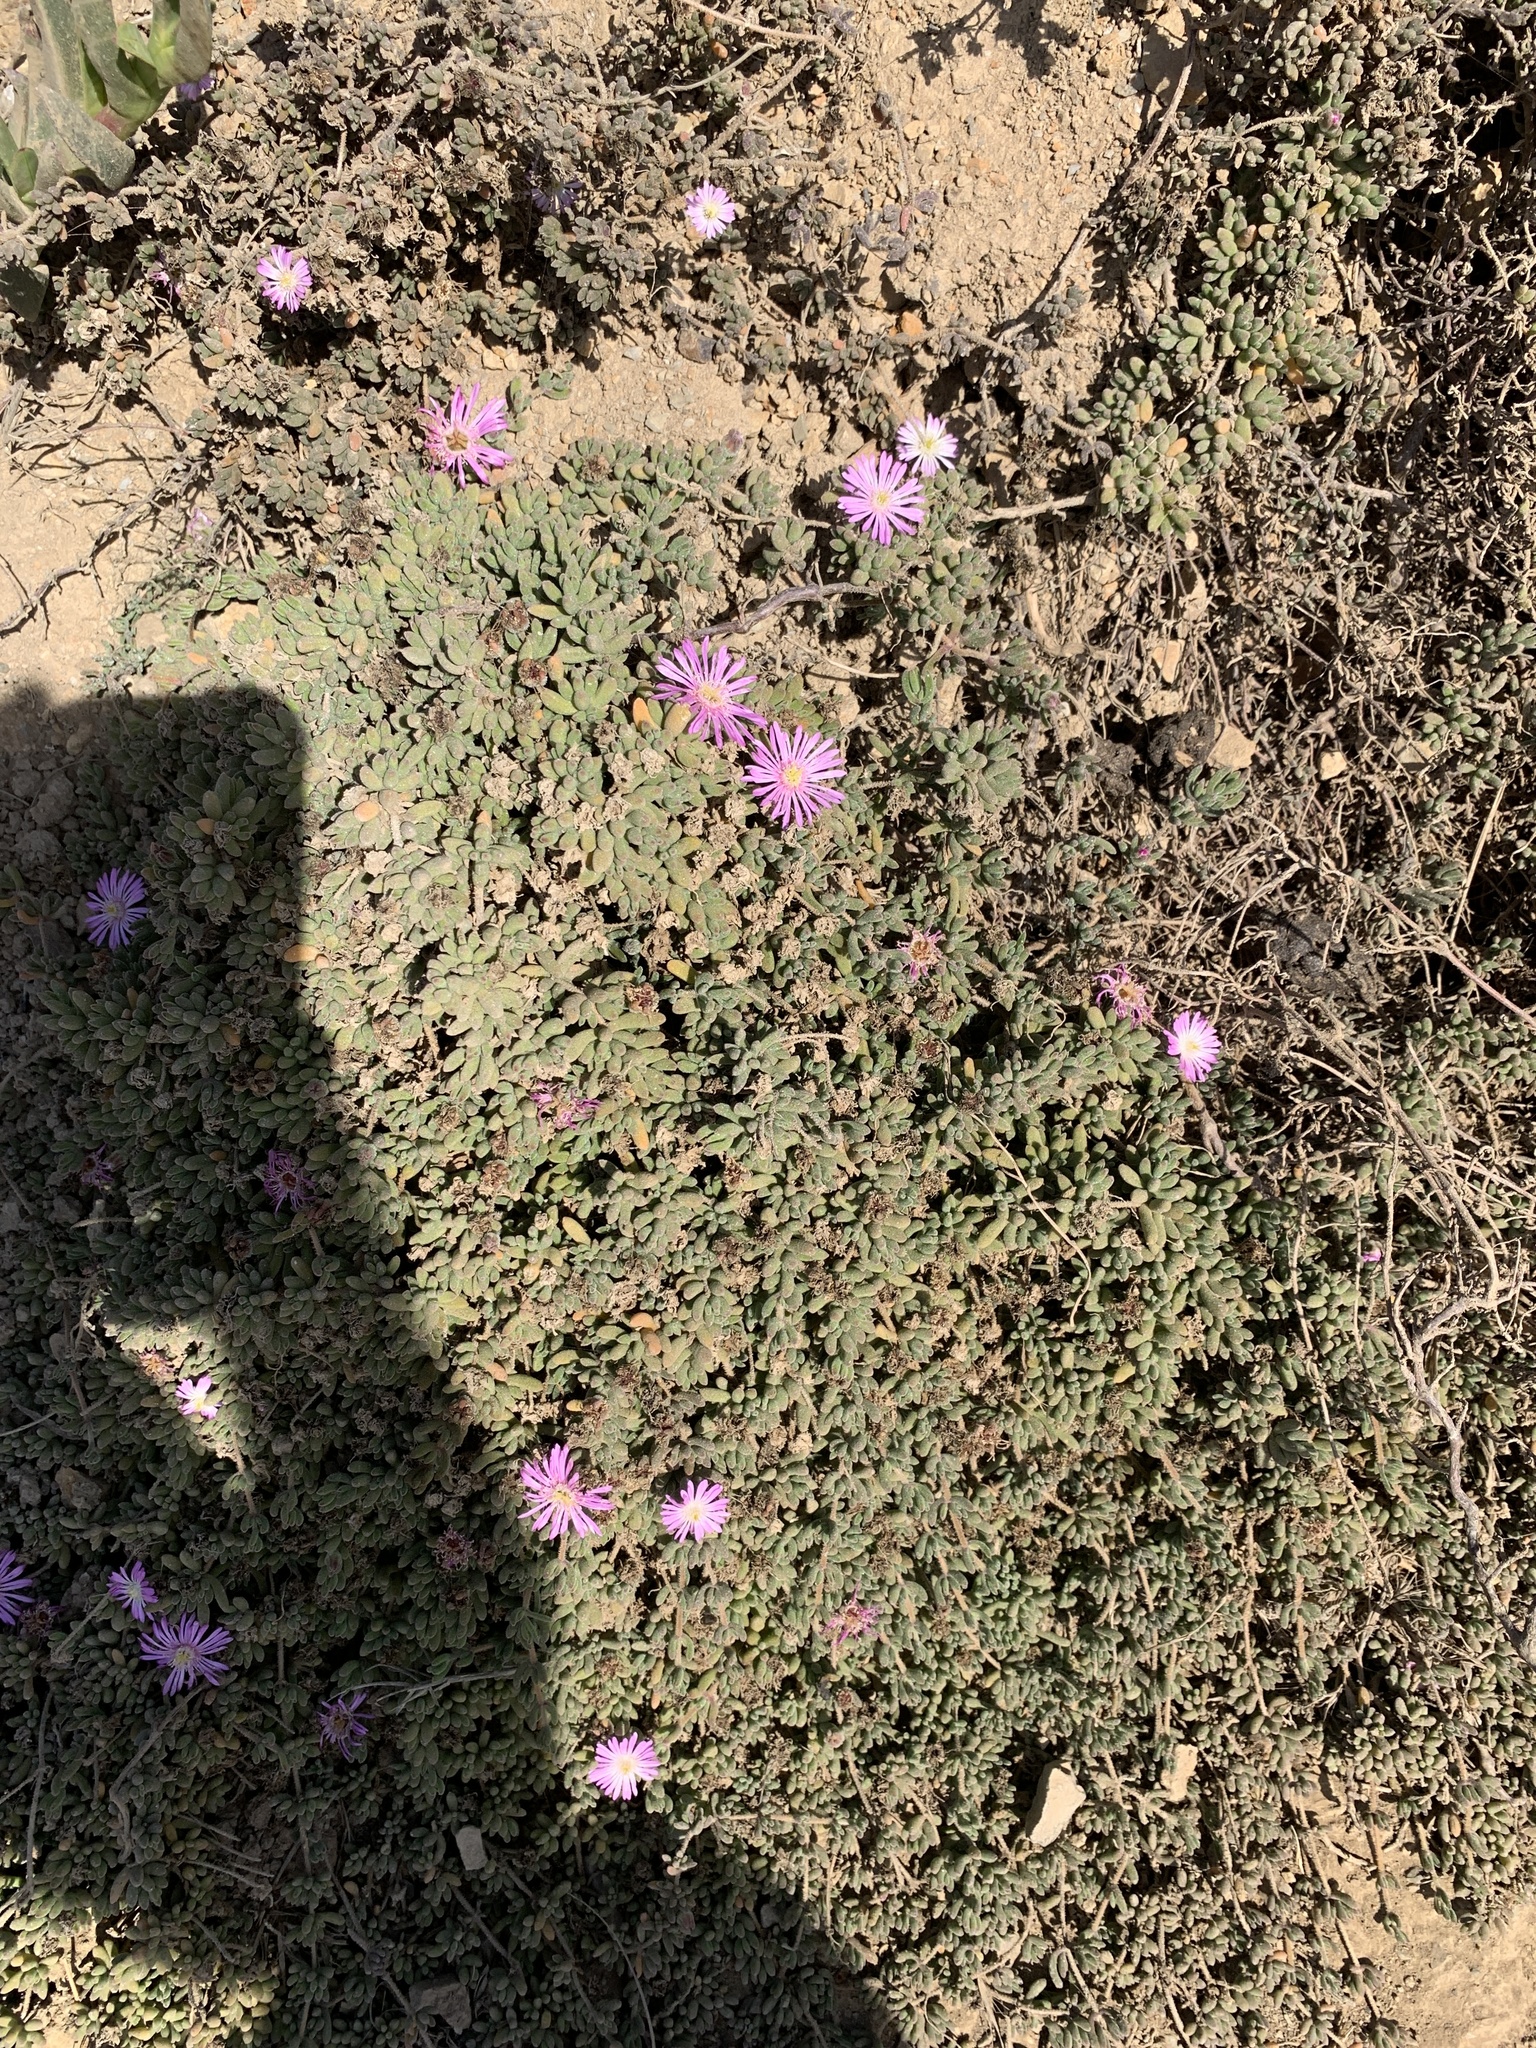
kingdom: Plantae
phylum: Tracheophyta
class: Magnoliopsida
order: Caryophyllales
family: Aizoaceae
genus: Drosanthemum
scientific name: Drosanthemum floribundum
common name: Pale dewplant
